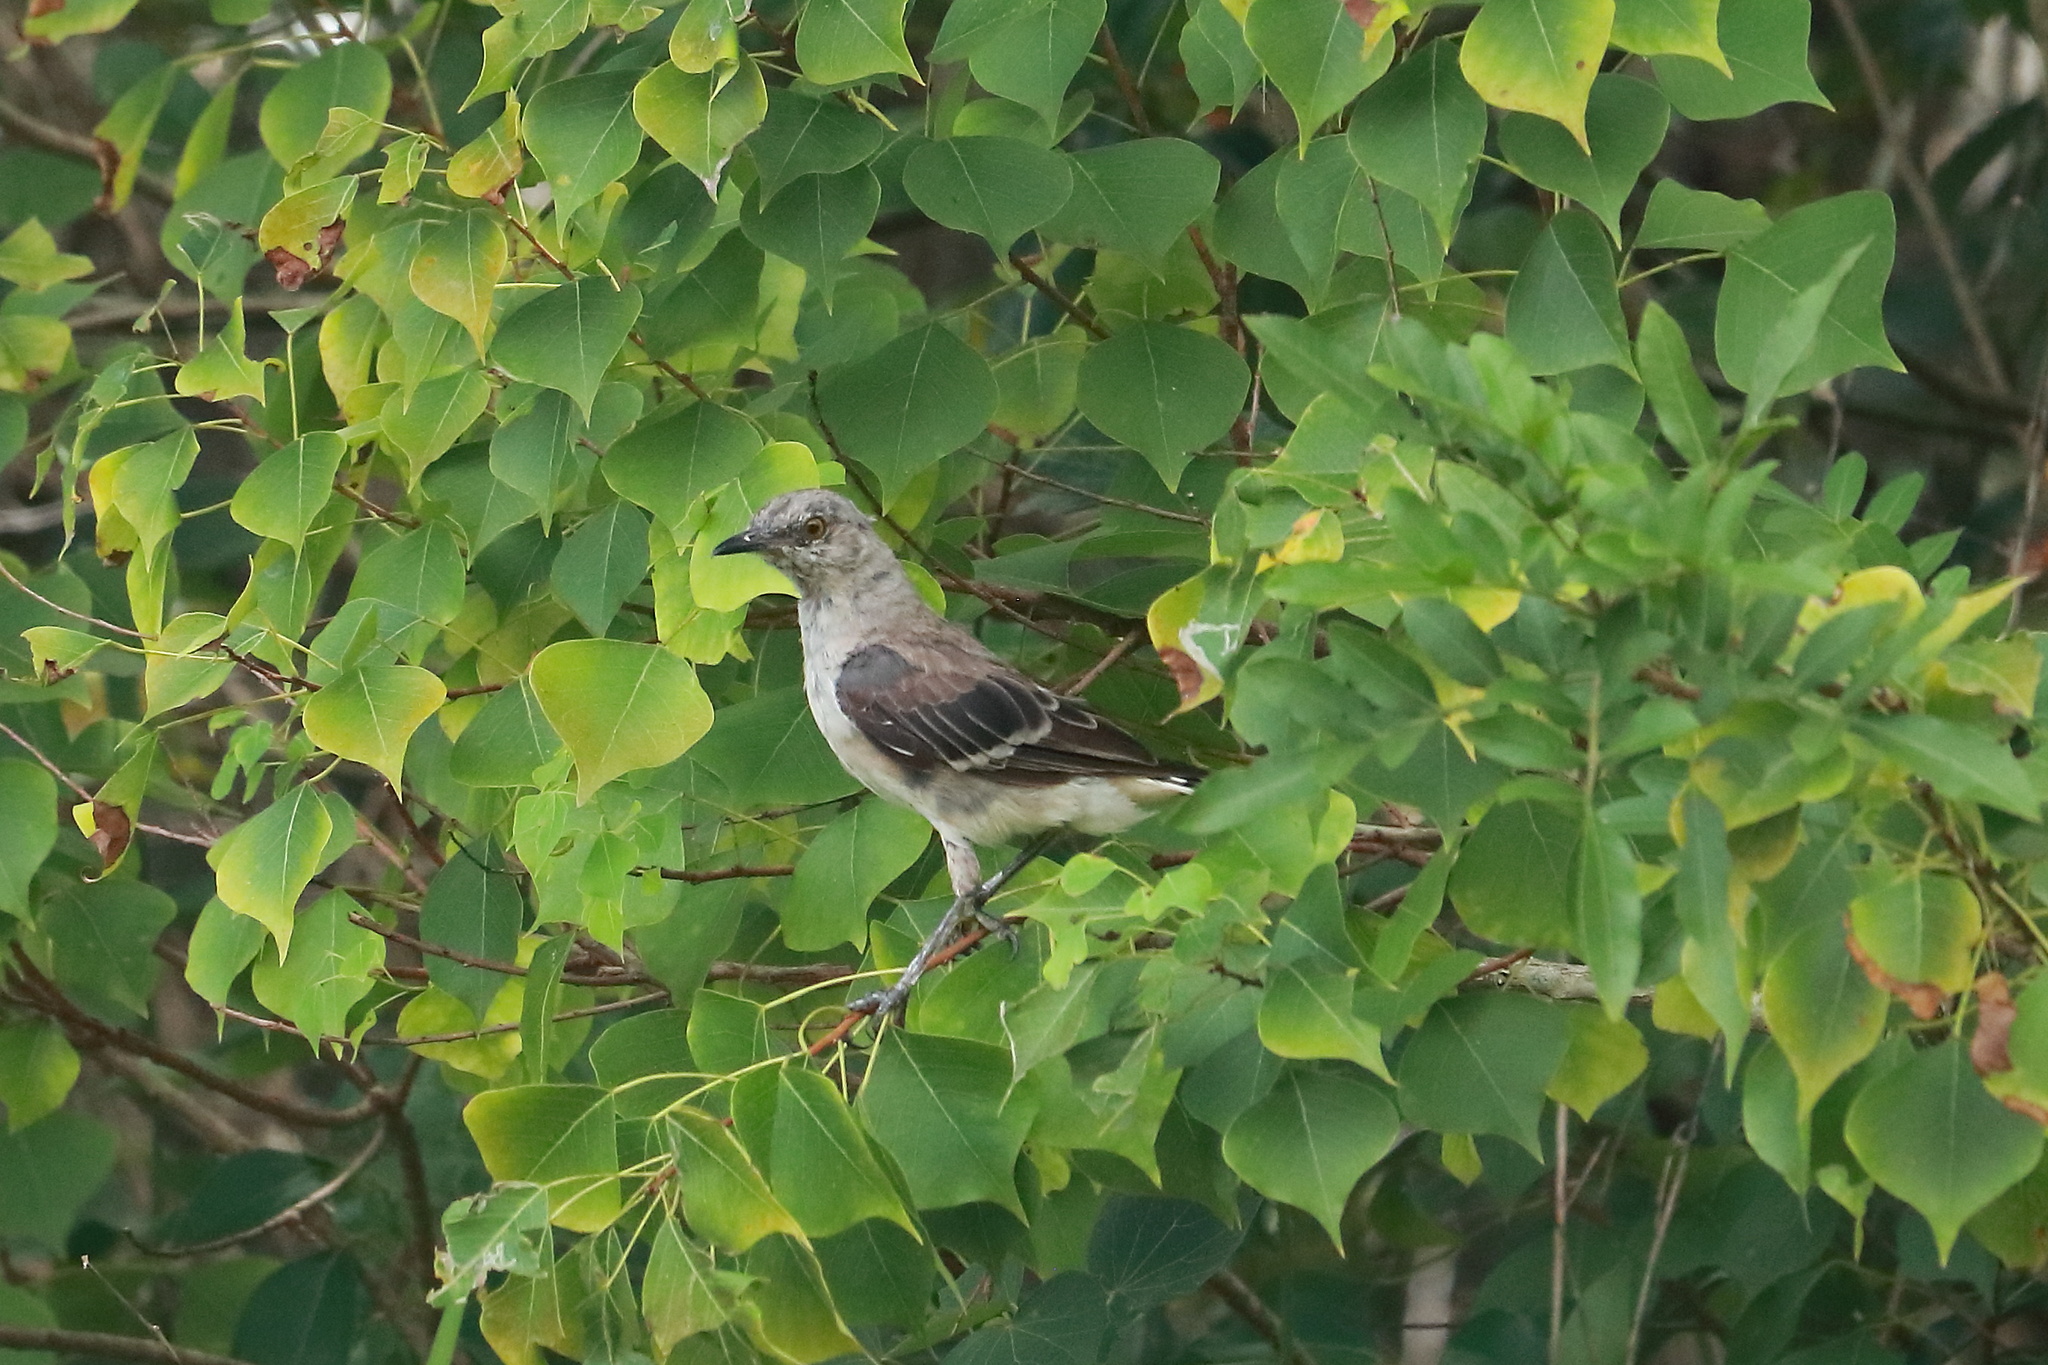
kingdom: Animalia
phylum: Chordata
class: Aves
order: Passeriformes
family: Mimidae
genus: Mimus
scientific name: Mimus polyglottos
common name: Northern mockingbird
